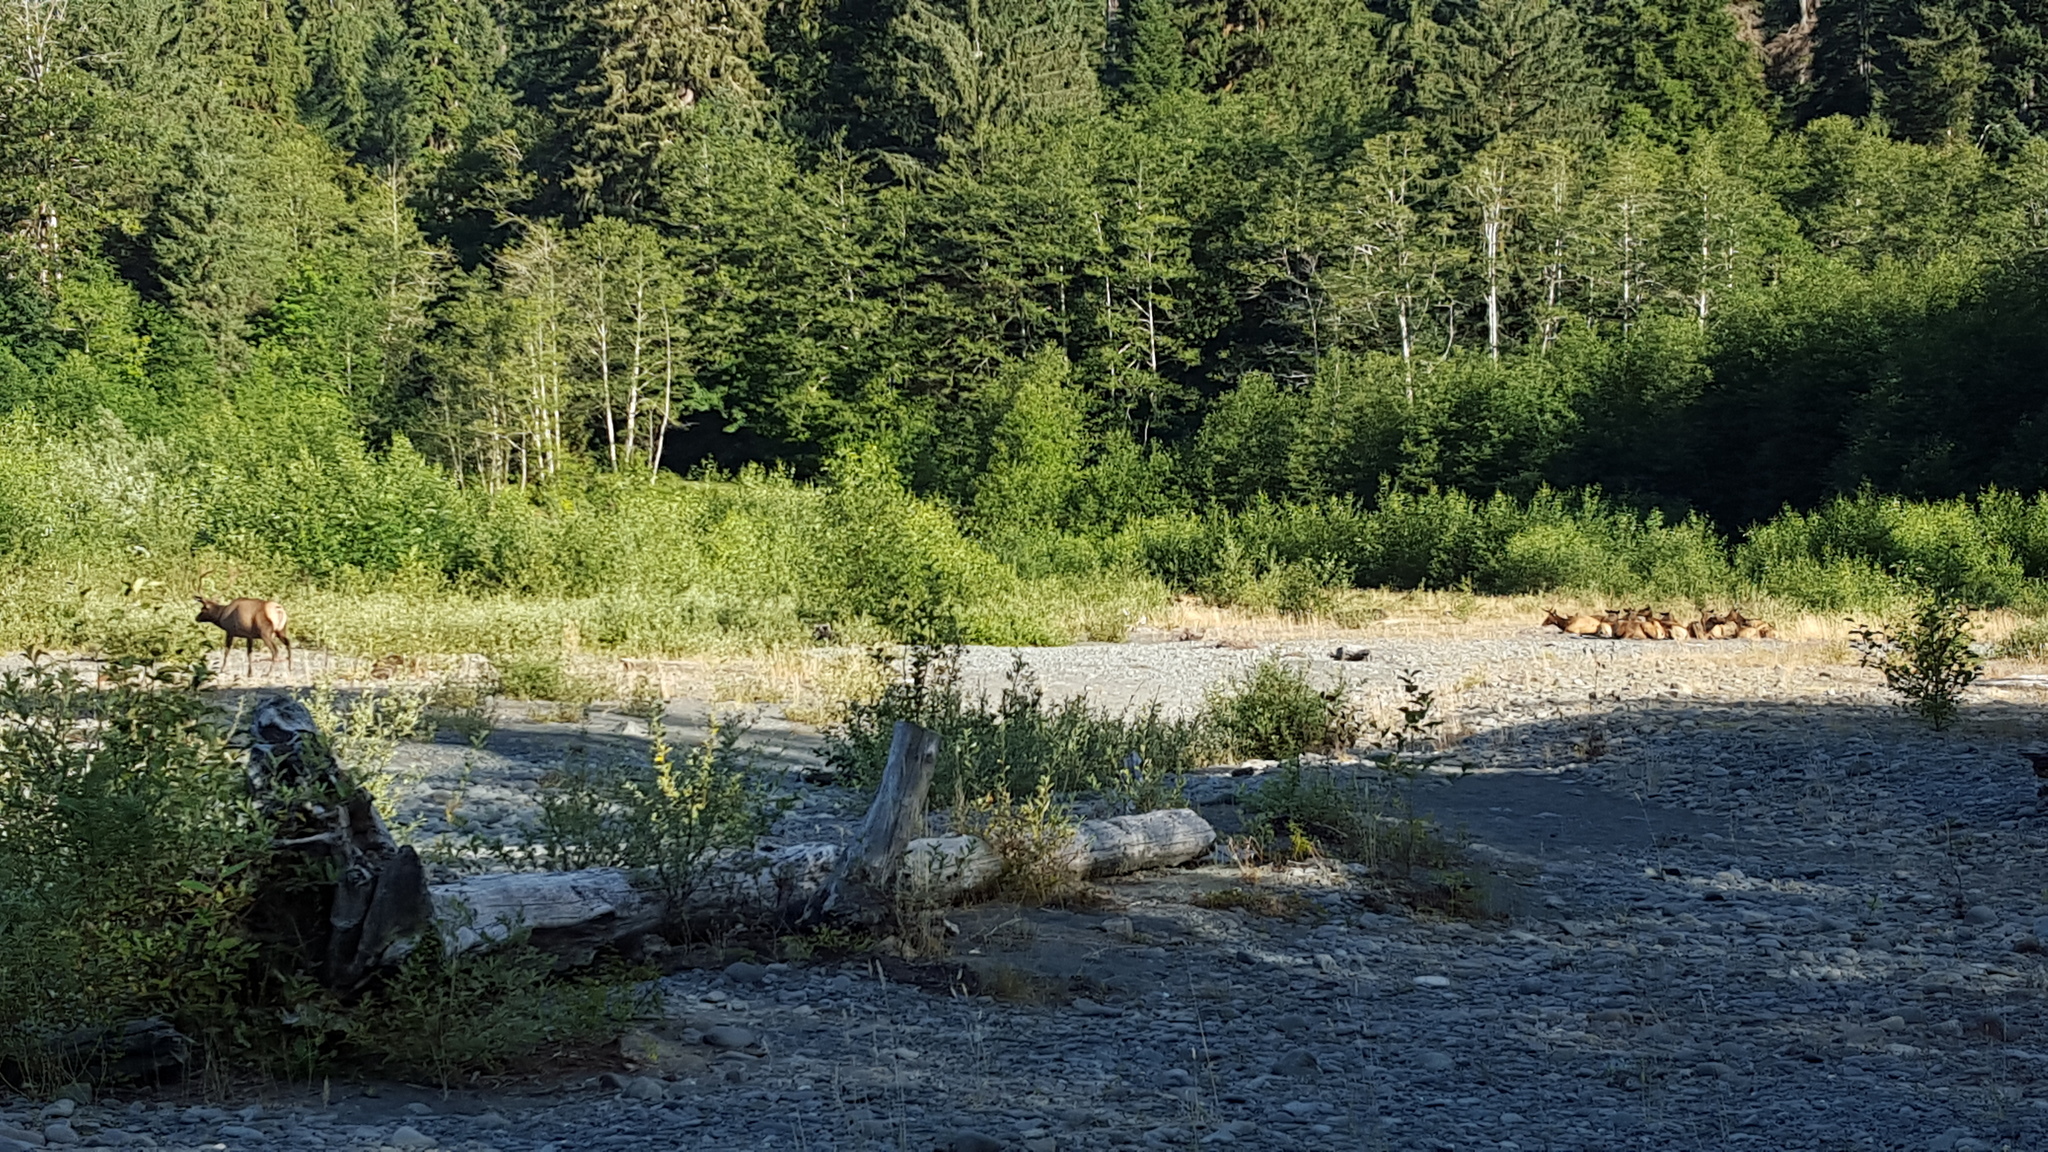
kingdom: Animalia
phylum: Chordata
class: Mammalia
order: Artiodactyla
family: Cervidae
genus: Cervus
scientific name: Cervus elaphus
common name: Red deer
